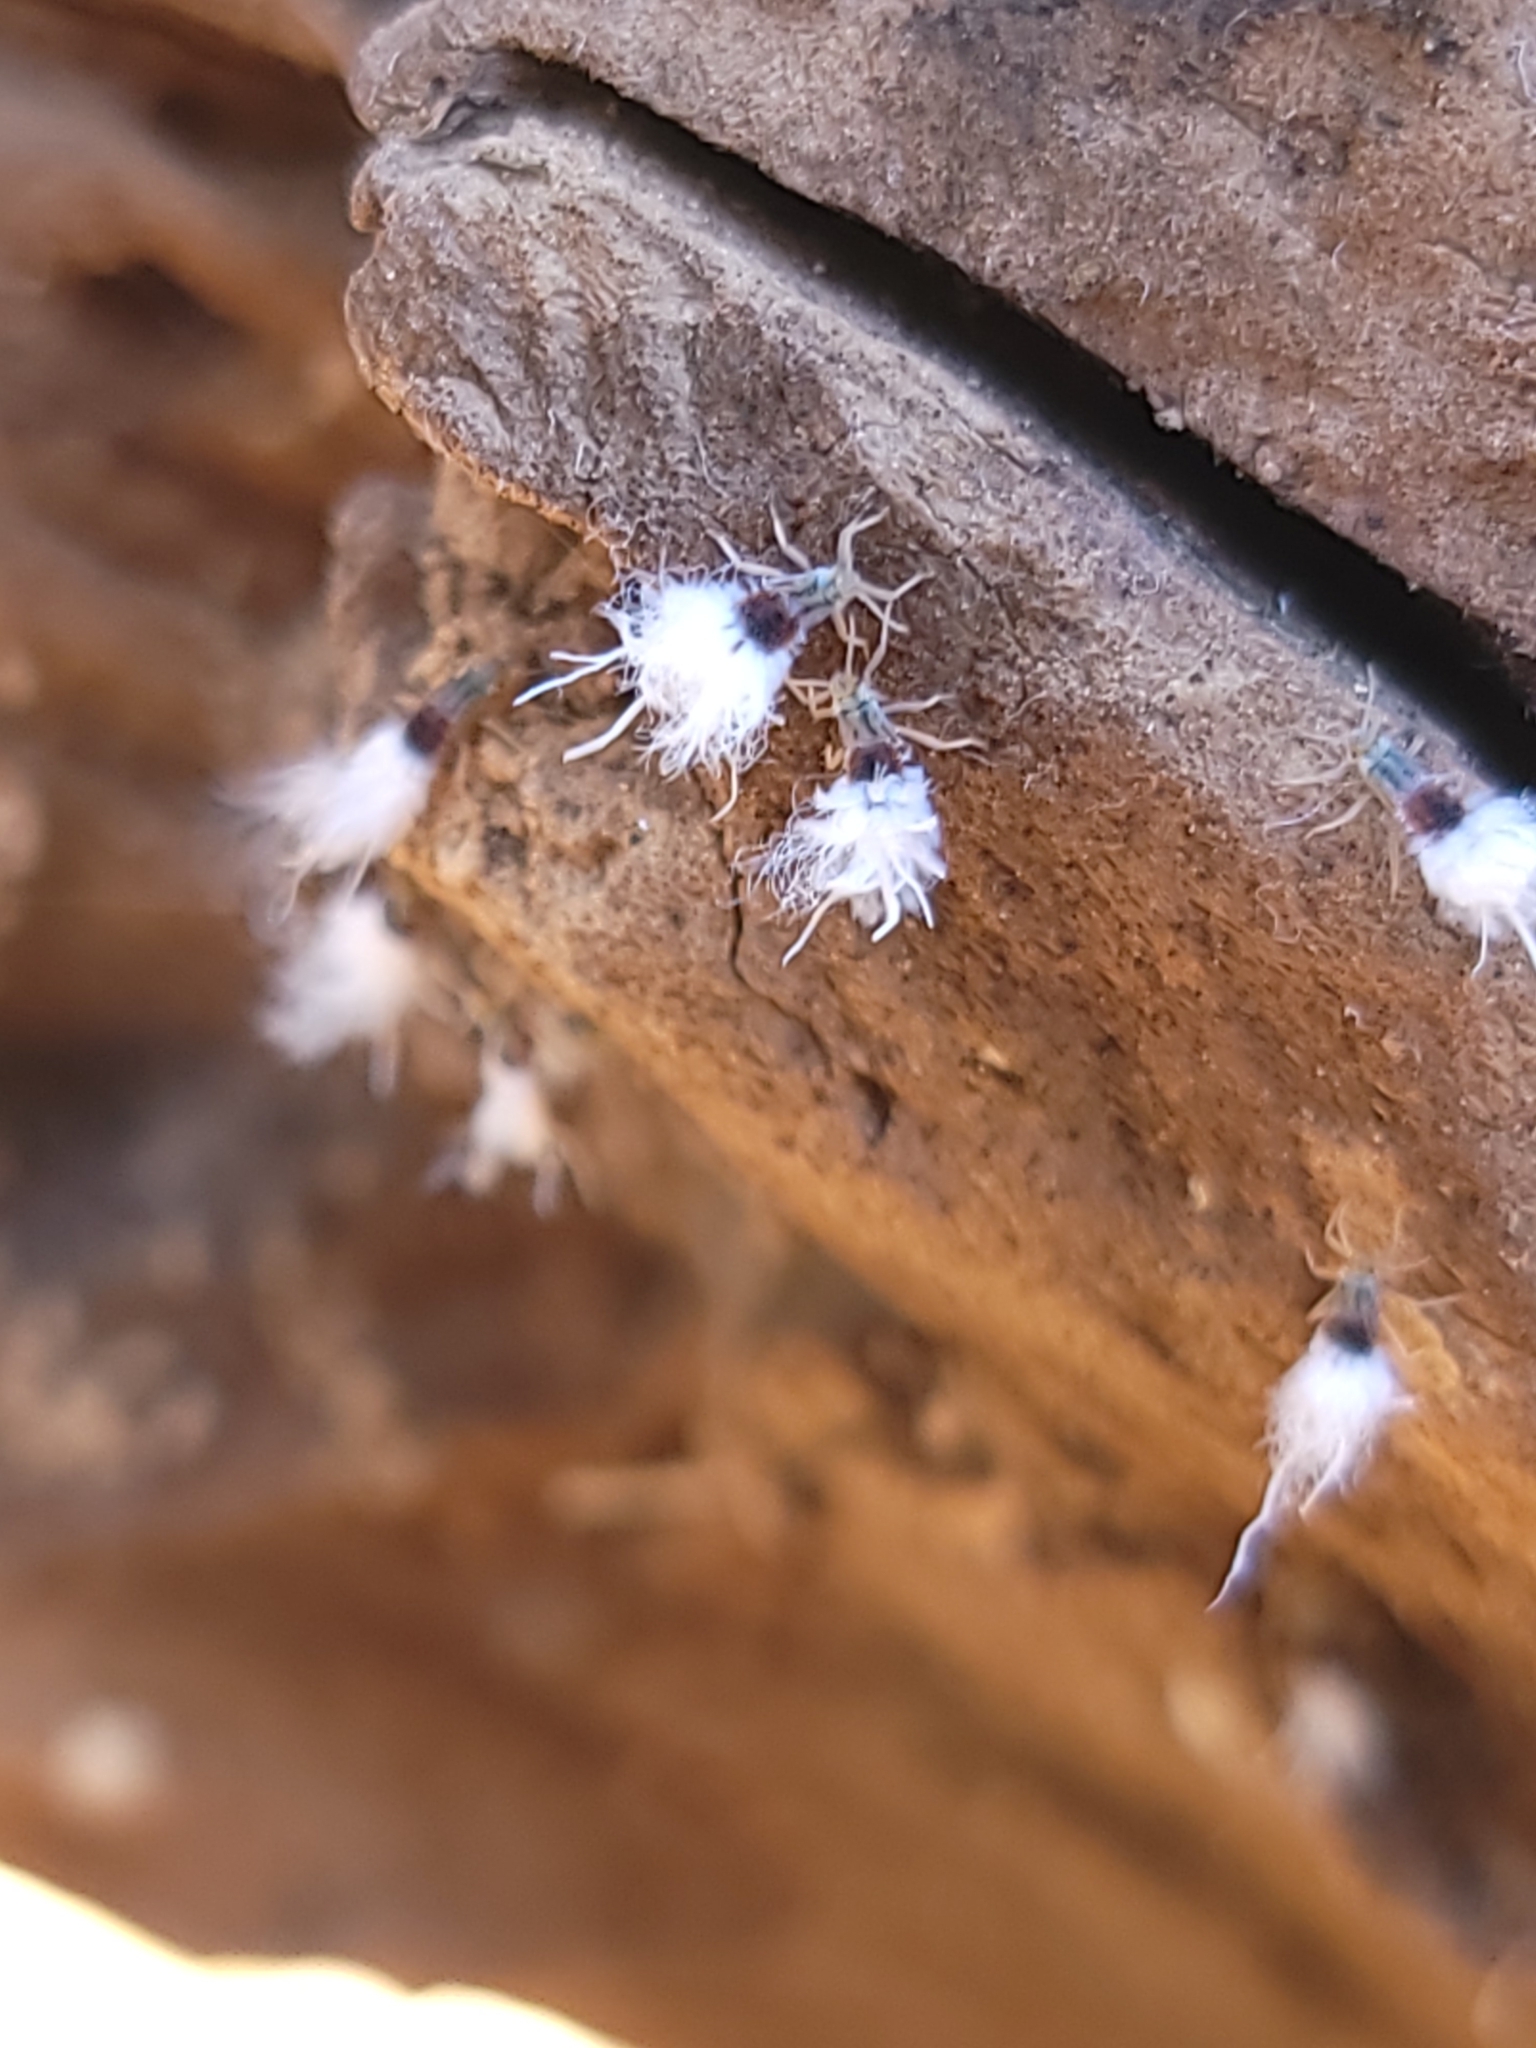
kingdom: Animalia
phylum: Arthropoda
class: Insecta
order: Hemiptera
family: Aphididae
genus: Grylloprociphilus
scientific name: Grylloprociphilus imbricator
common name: Beech blight aphid
